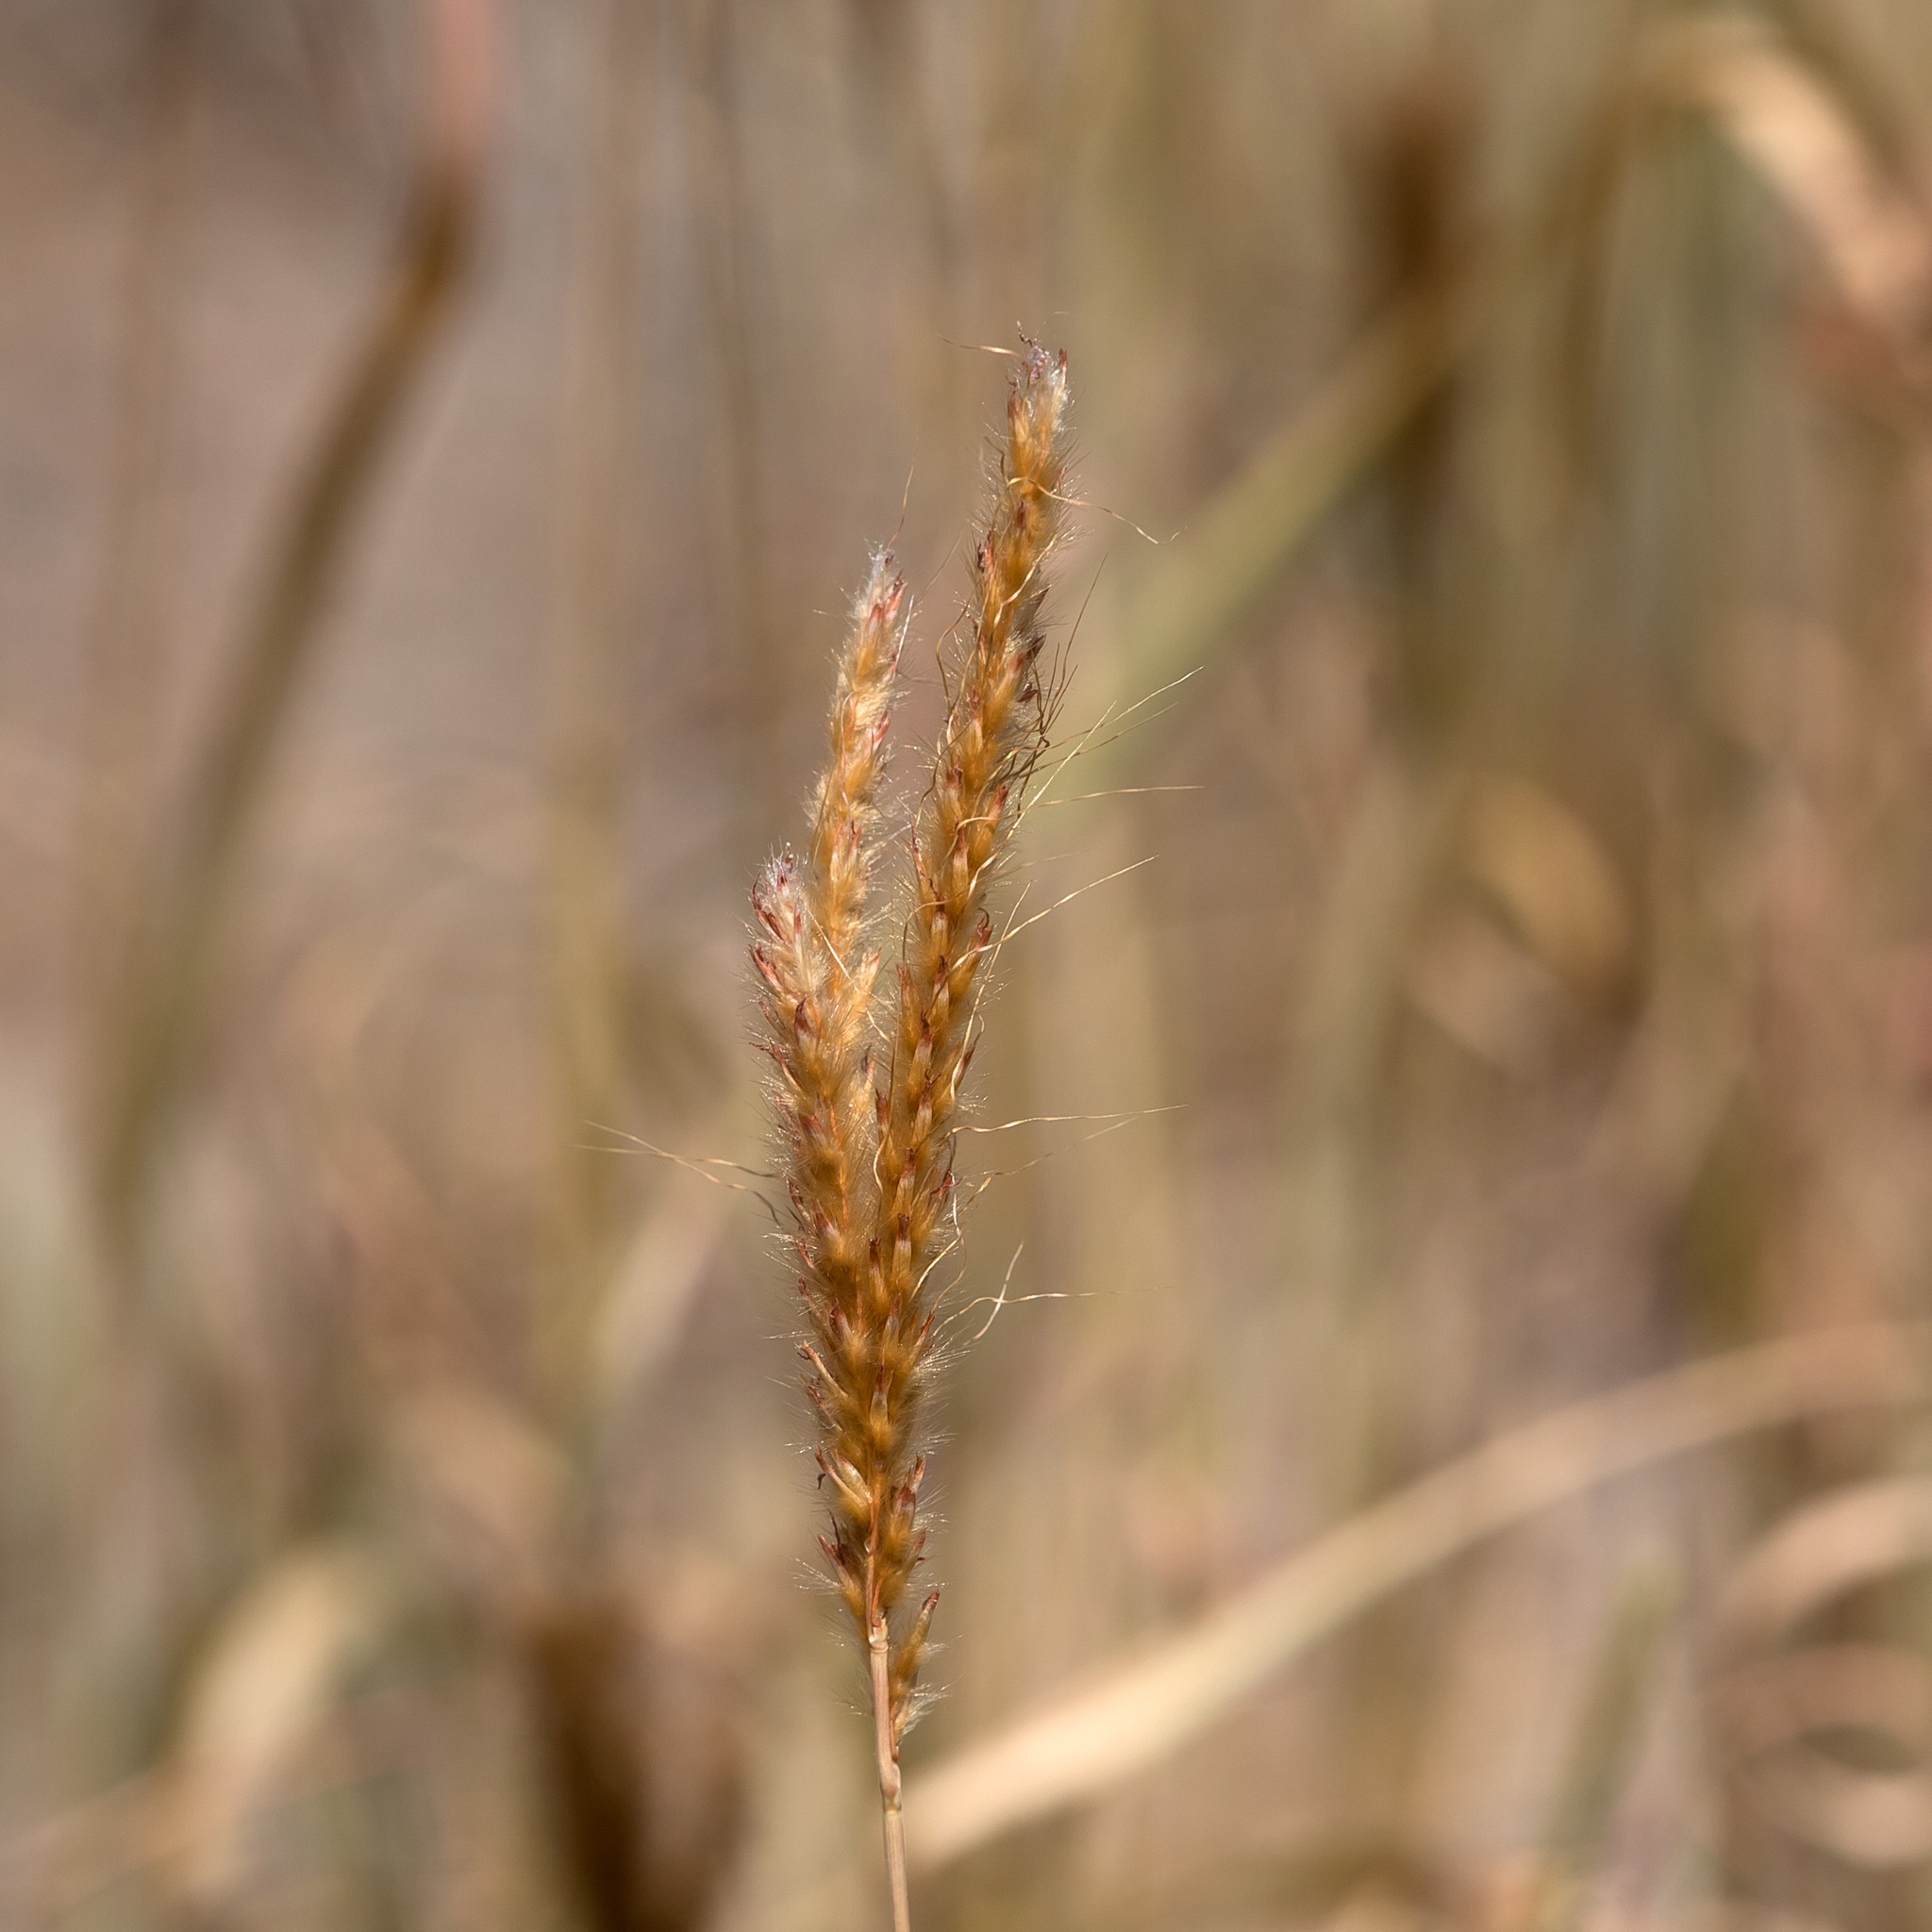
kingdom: Plantae
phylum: Tracheophyta
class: Liliopsida
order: Poales
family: Poaceae
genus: Eulalia
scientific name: Eulalia aurea
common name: Silky browntop
